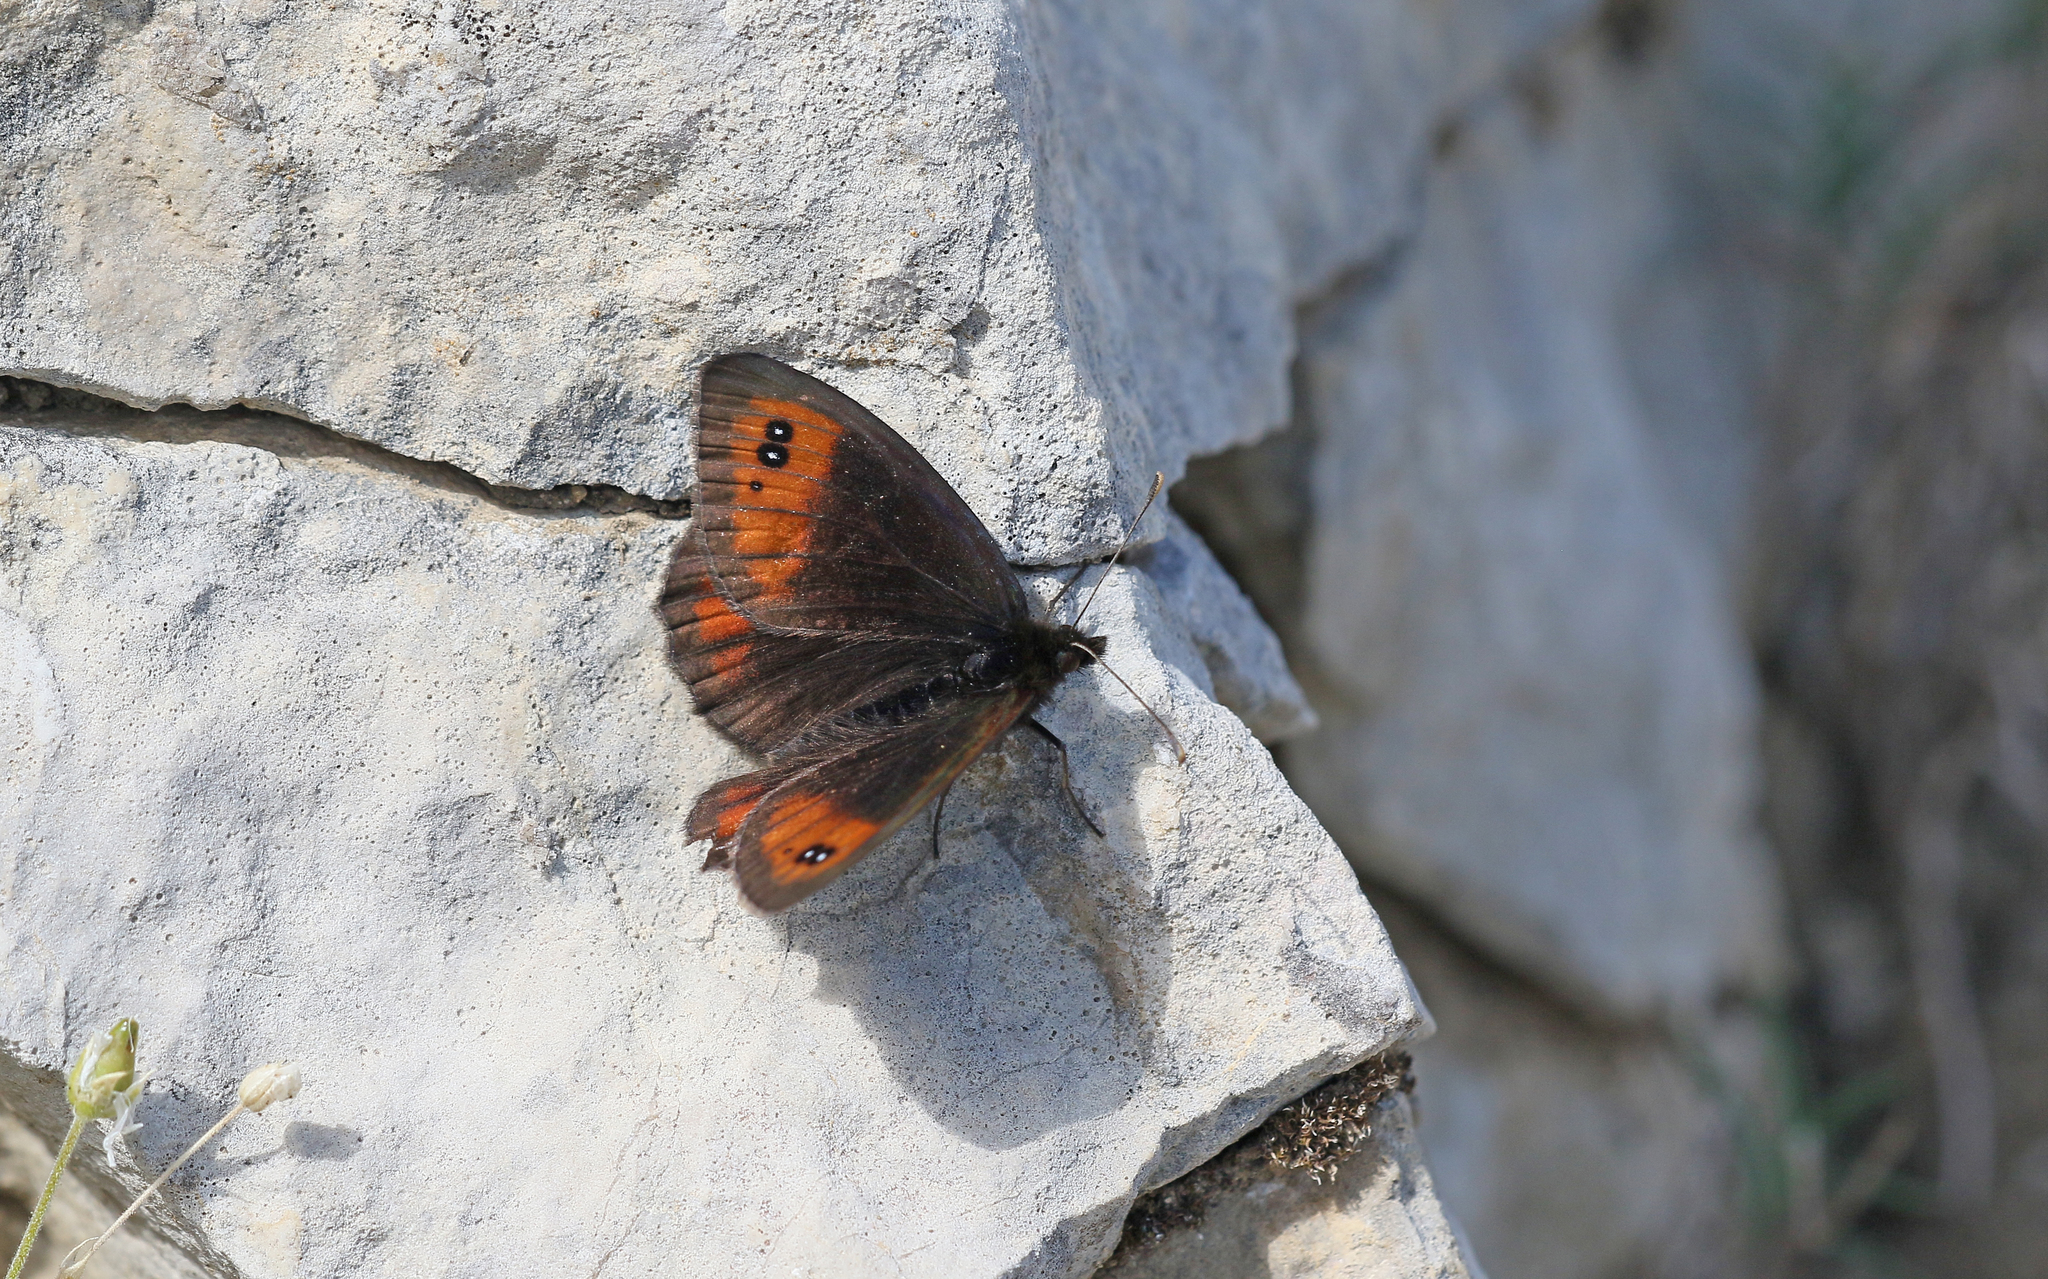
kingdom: Animalia
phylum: Arthropoda
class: Insecta
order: Lepidoptera
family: Nymphalidae
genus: Erebia
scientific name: Erebia scipio
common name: Larche ringlet
